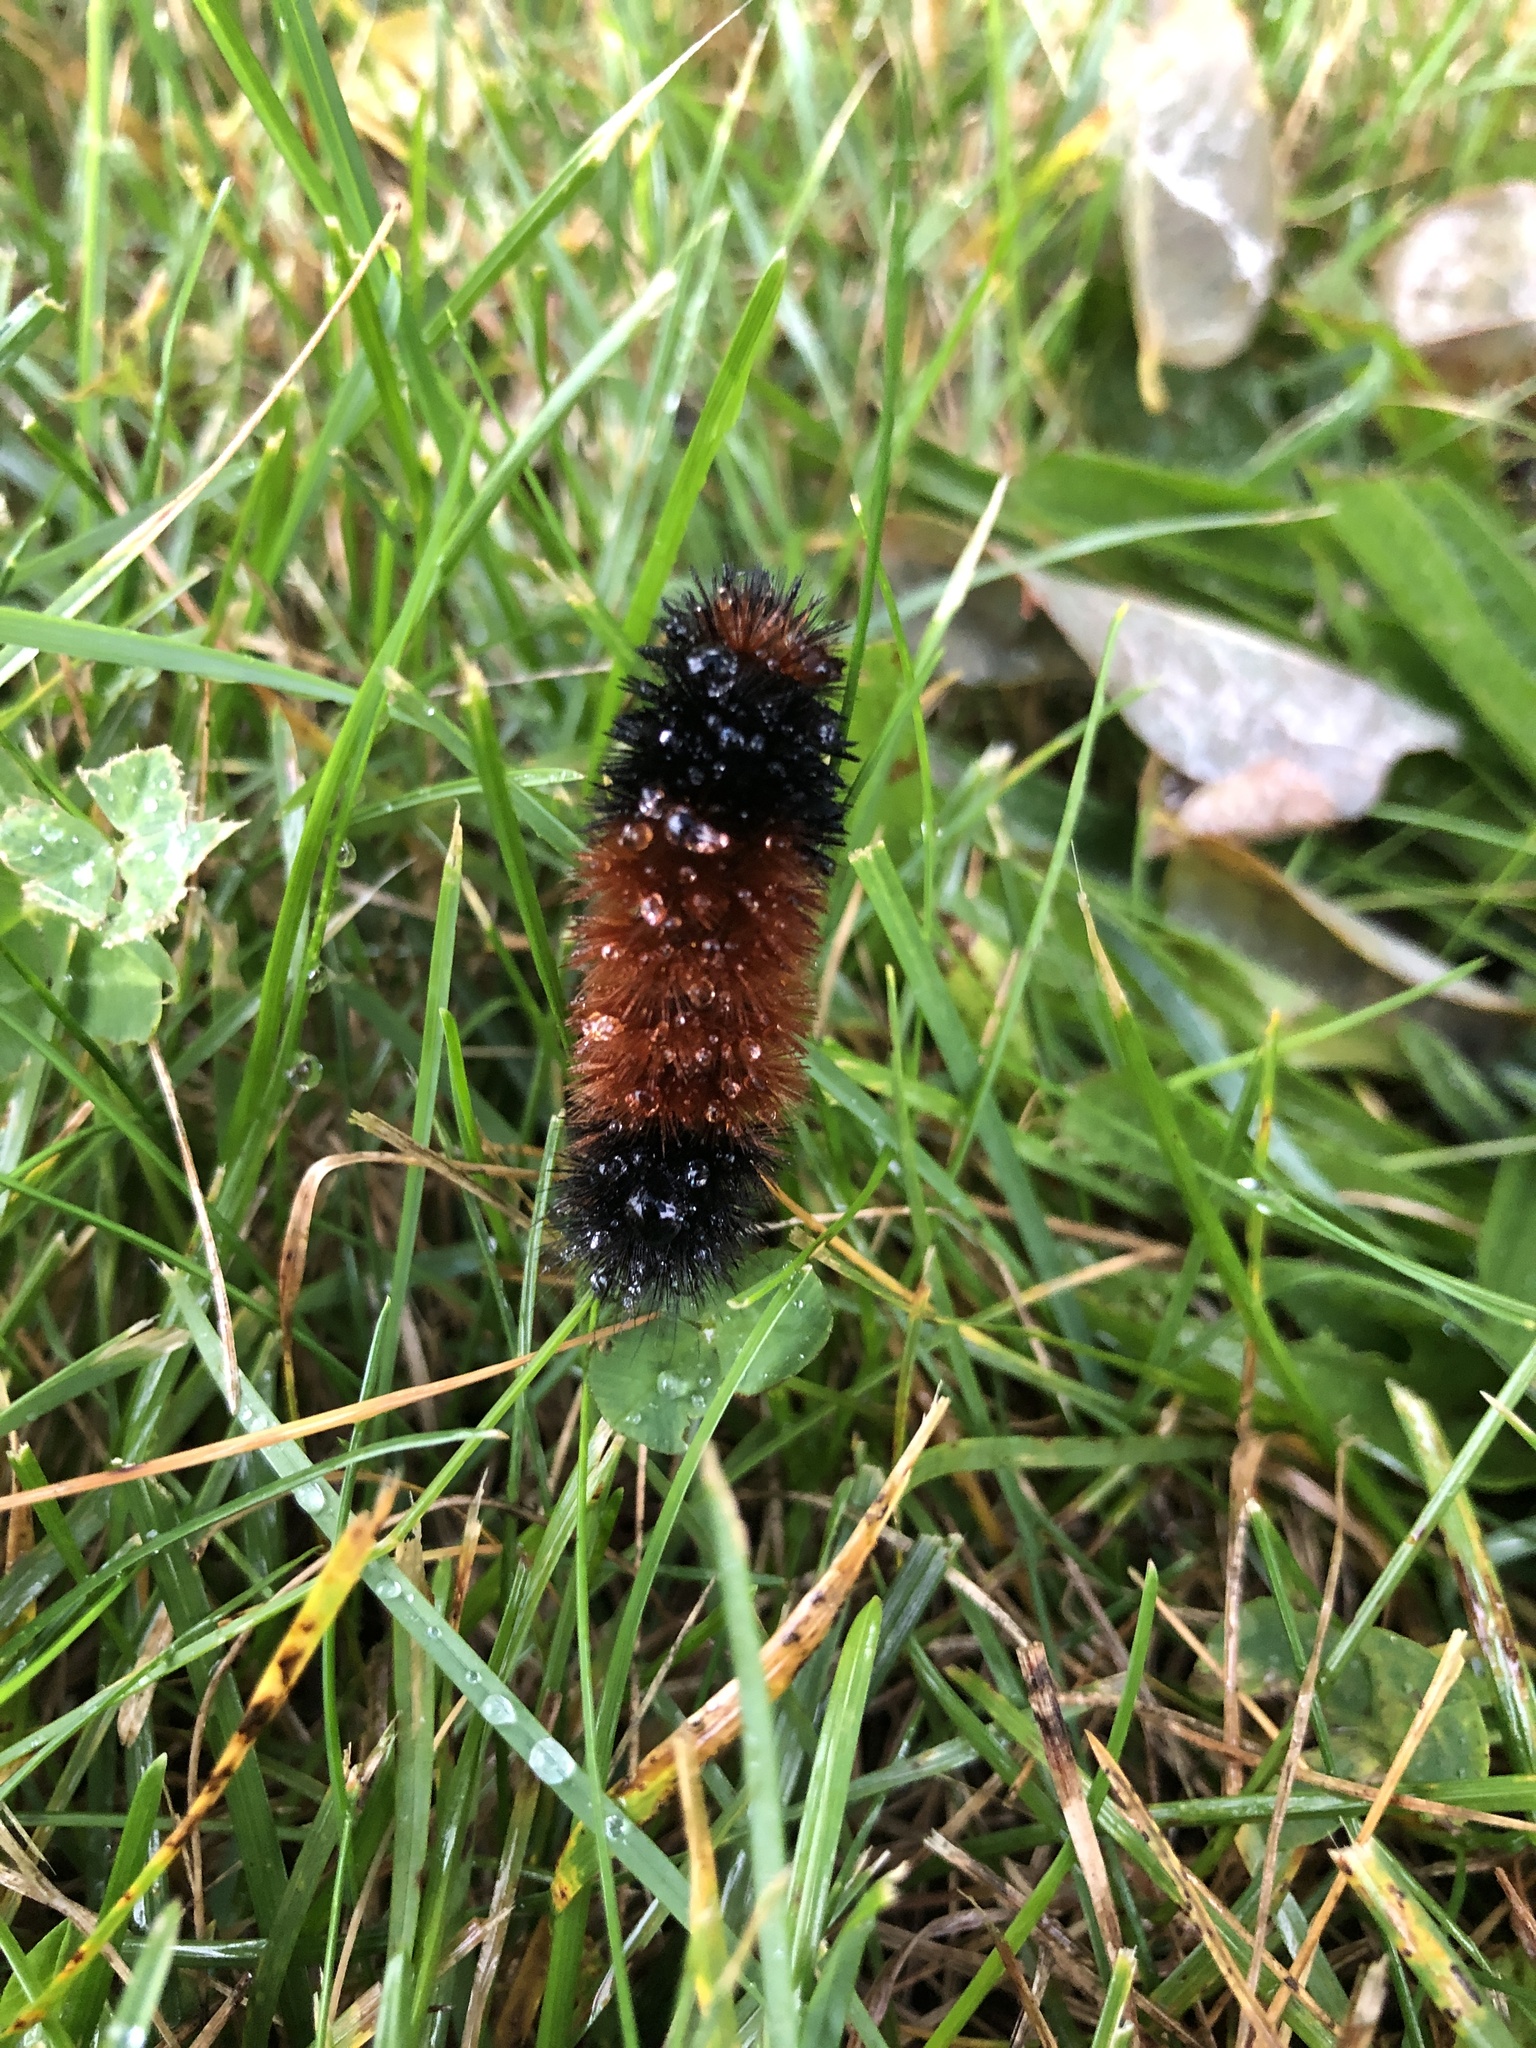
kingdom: Animalia
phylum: Arthropoda
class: Insecta
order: Lepidoptera
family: Erebidae
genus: Pyrrharctia
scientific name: Pyrrharctia isabella
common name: Isabella tiger moth
